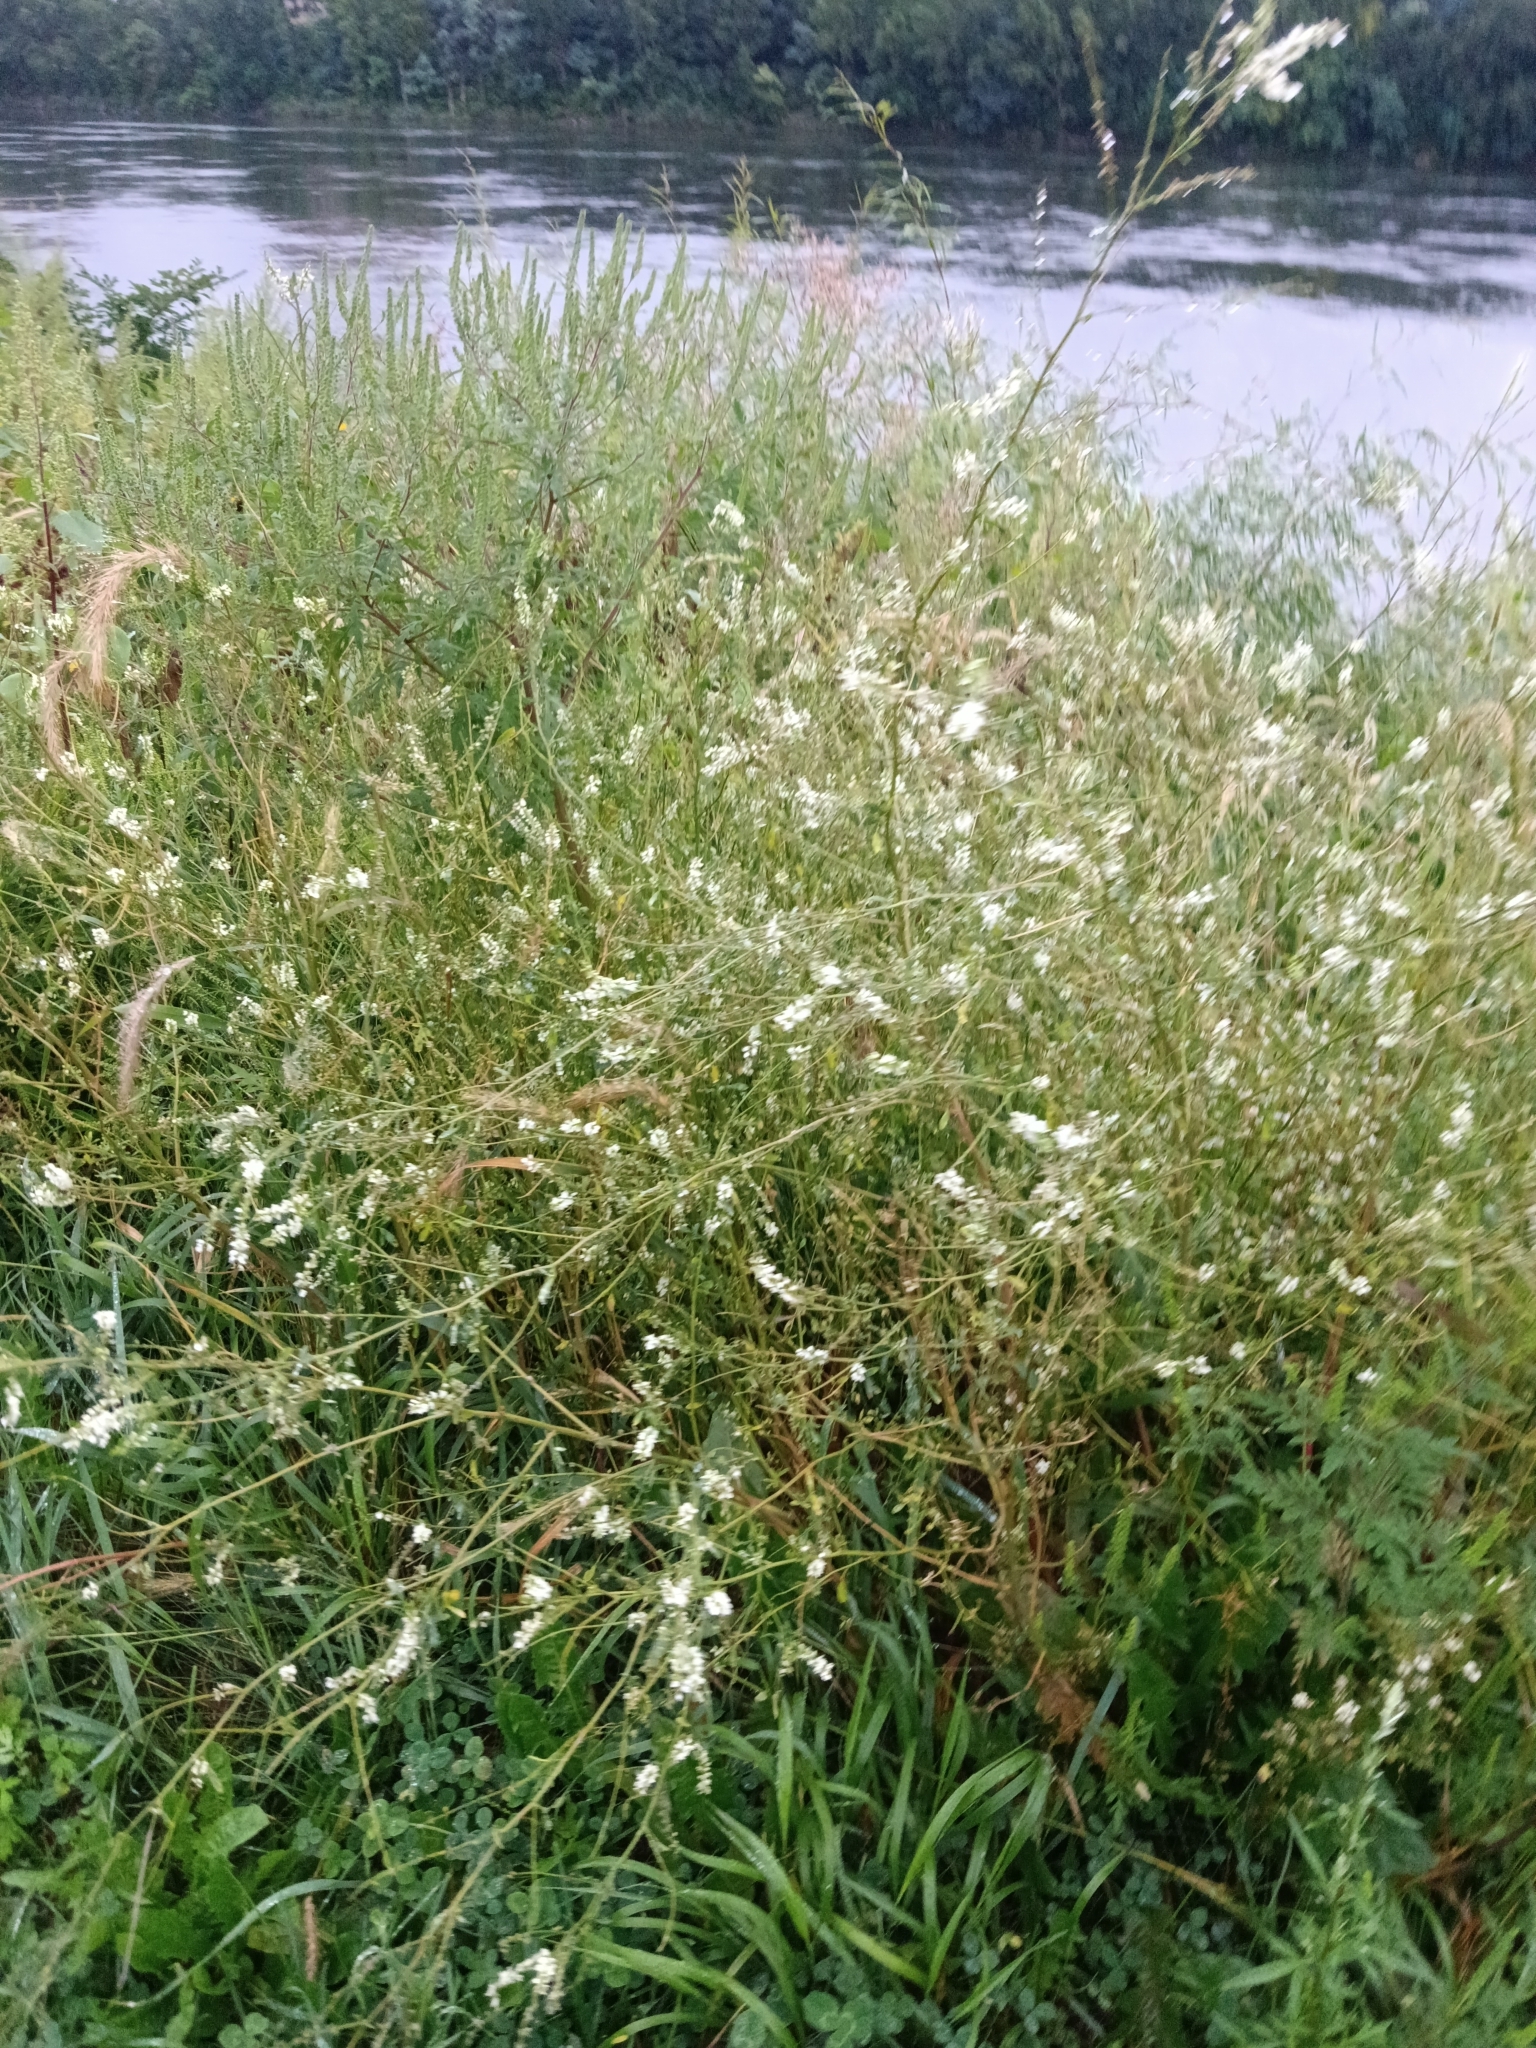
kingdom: Plantae
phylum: Tracheophyta
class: Magnoliopsida
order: Fabales
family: Fabaceae
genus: Melilotus
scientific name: Melilotus albus
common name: White melilot
